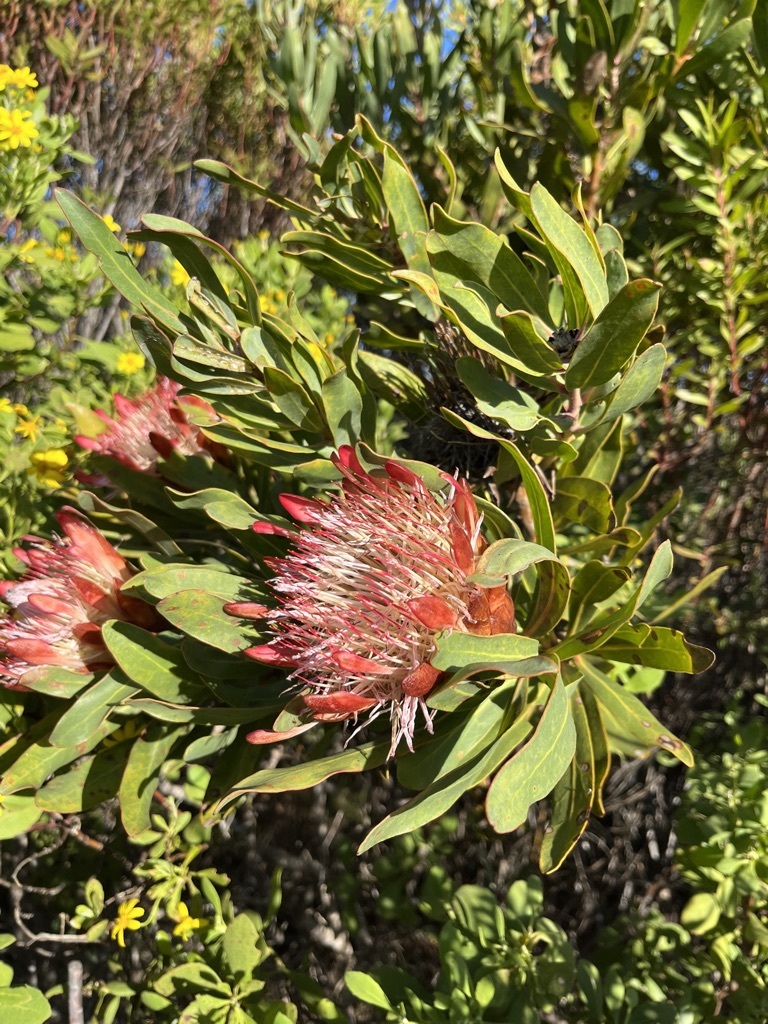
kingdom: Plantae
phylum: Tracheophyta
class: Magnoliopsida
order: Proteales
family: Proteaceae
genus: Protea
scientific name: Protea susannae
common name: Foetid-leaf sugarbush
